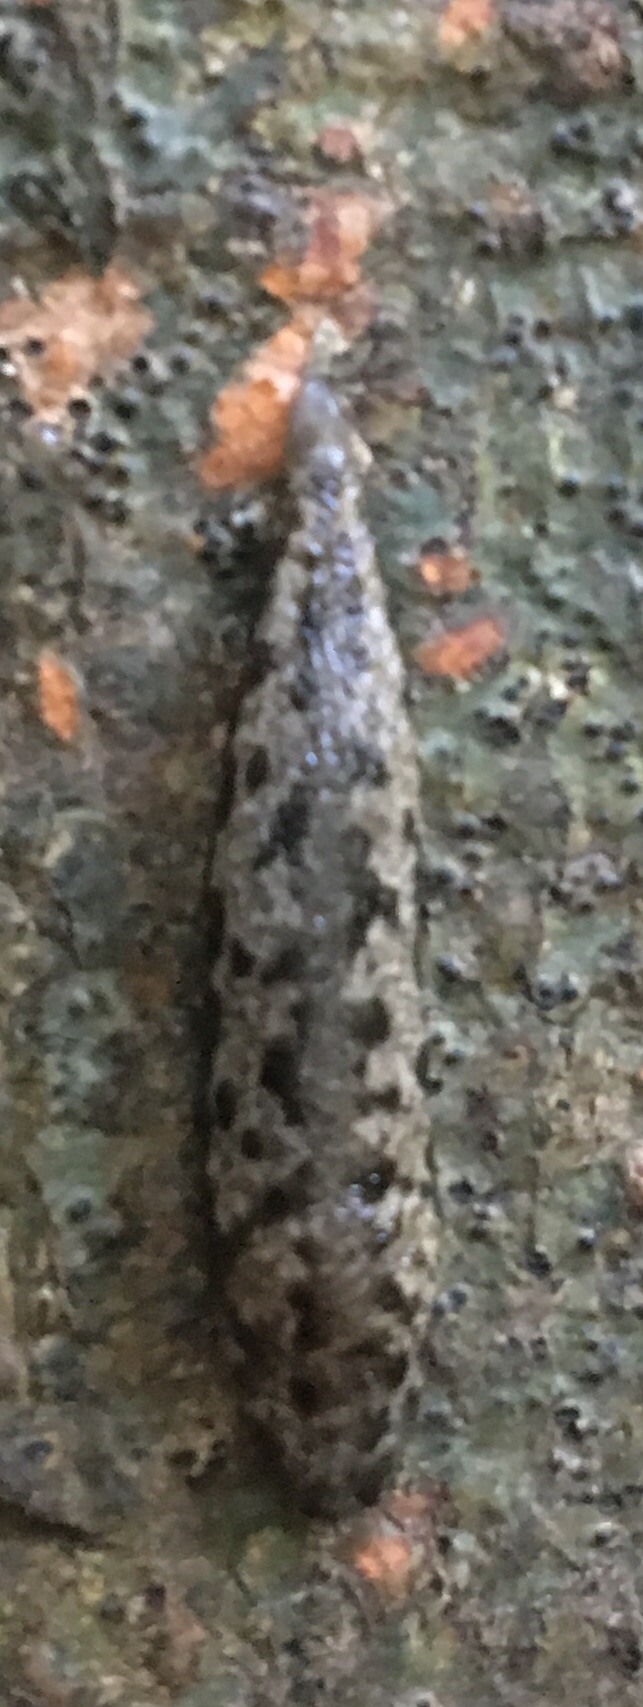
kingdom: Animalia
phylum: Mollusca
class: Gastropoda
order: Stylommatophora
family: Philomycidae
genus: Megapallifera
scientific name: Megapallifera mutabilis
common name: Changeable mantleslug
